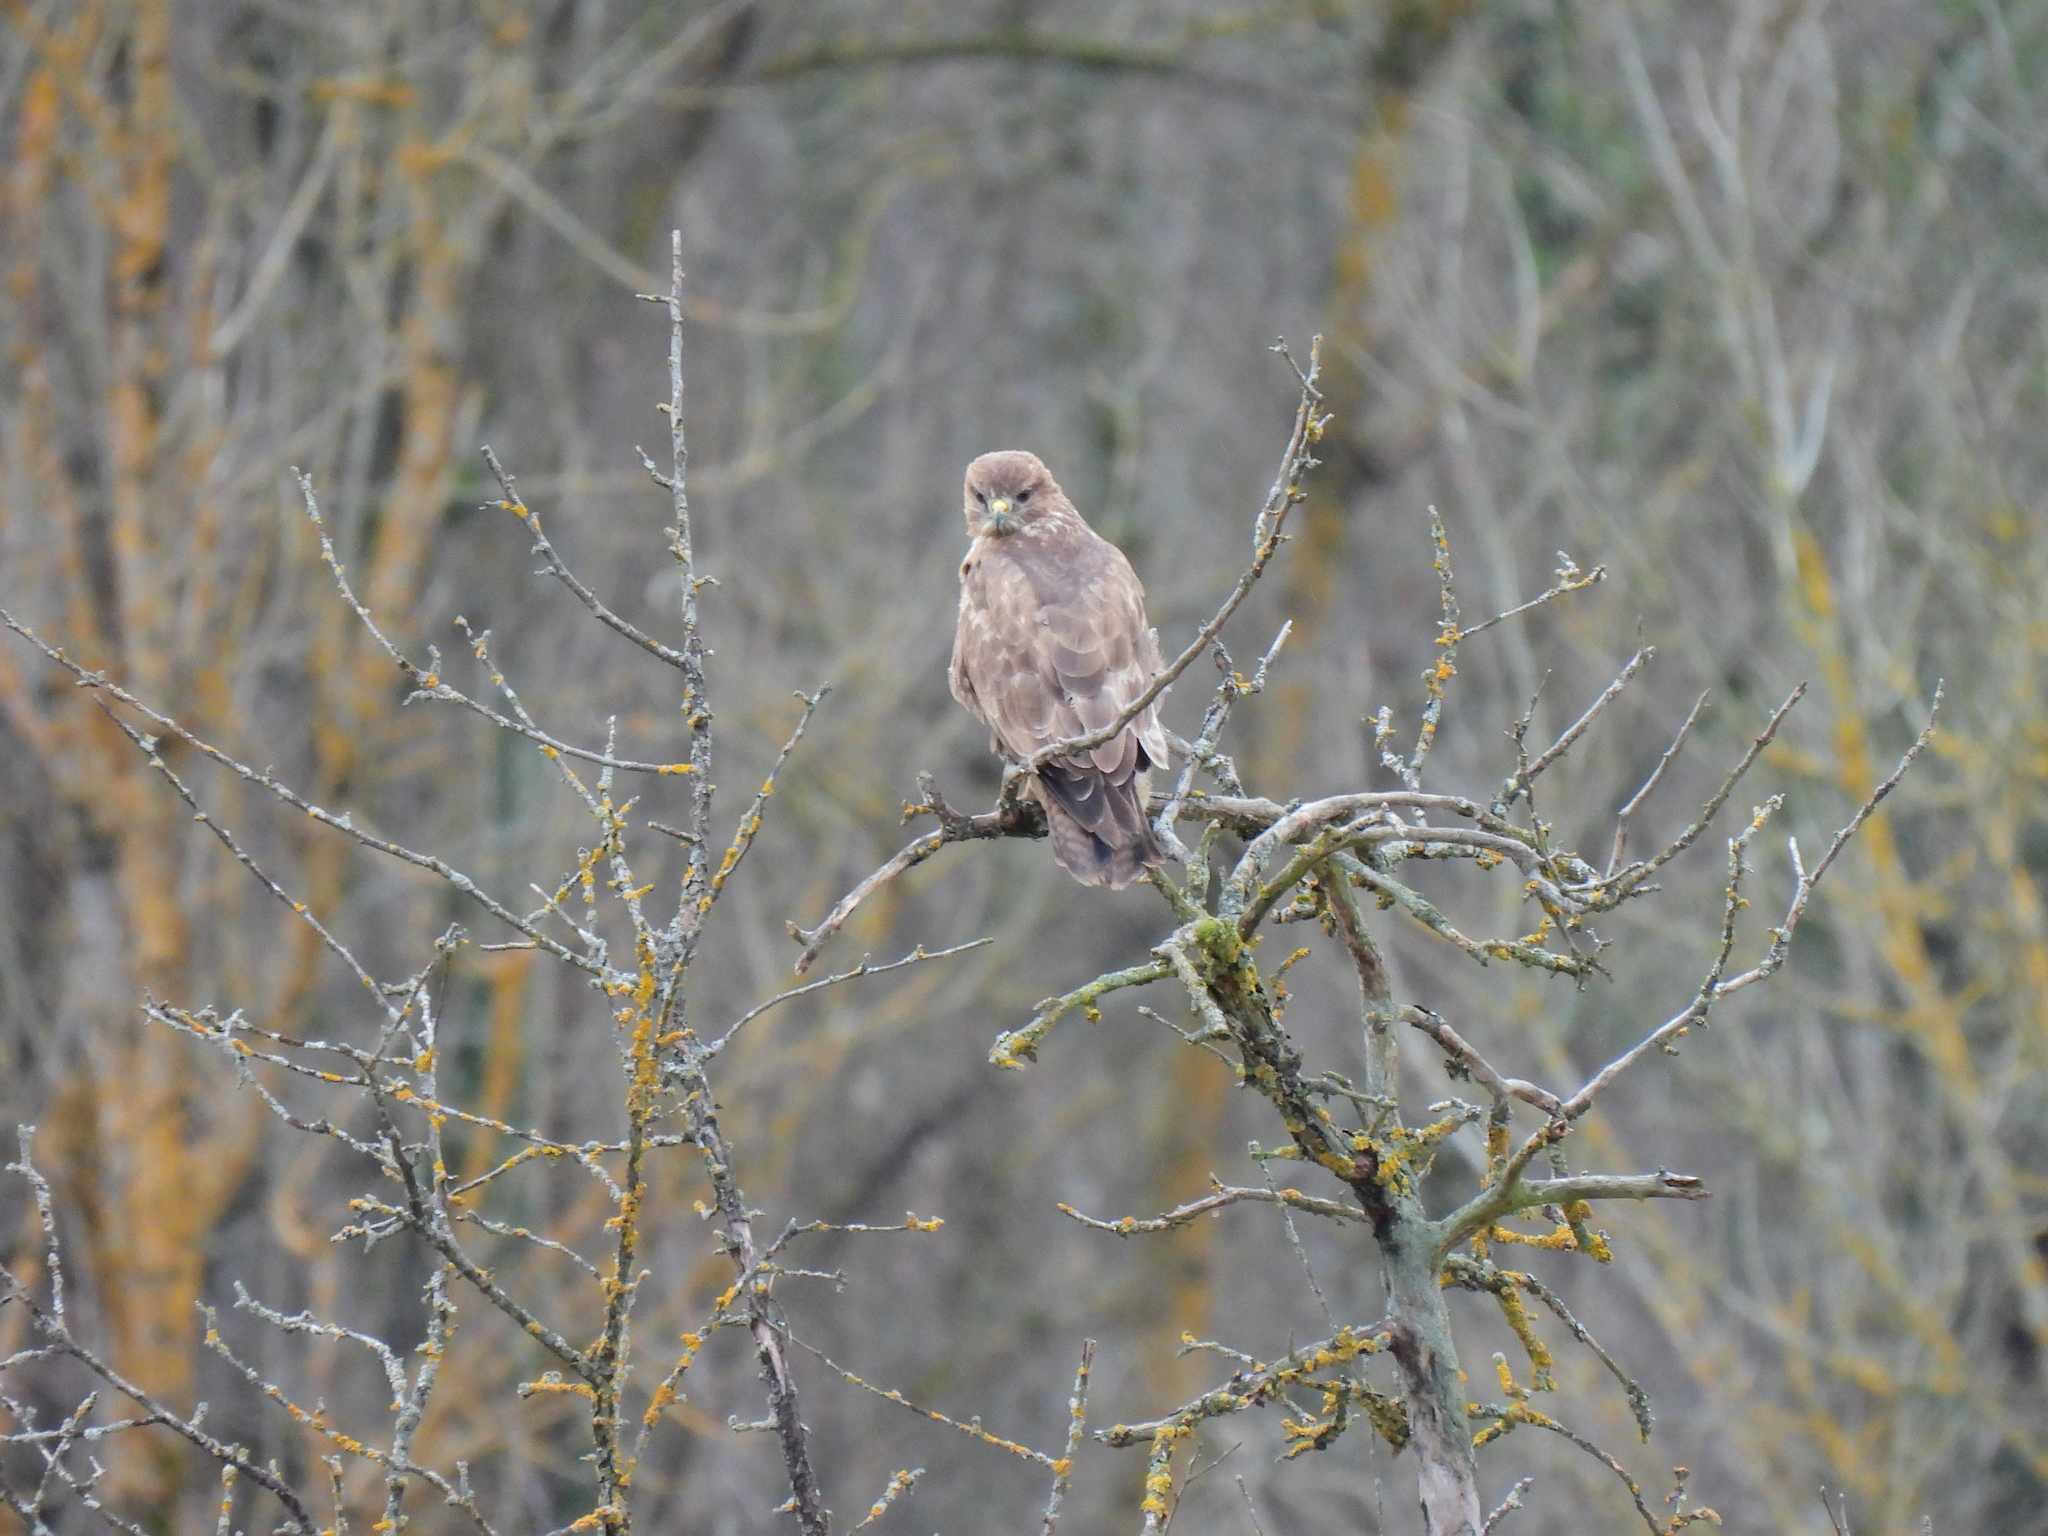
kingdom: Animalia
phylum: Chordata
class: Aves
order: Accipitriformes
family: Accipitridae
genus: Buteo
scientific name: Buteo buteo
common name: Common buzzard
